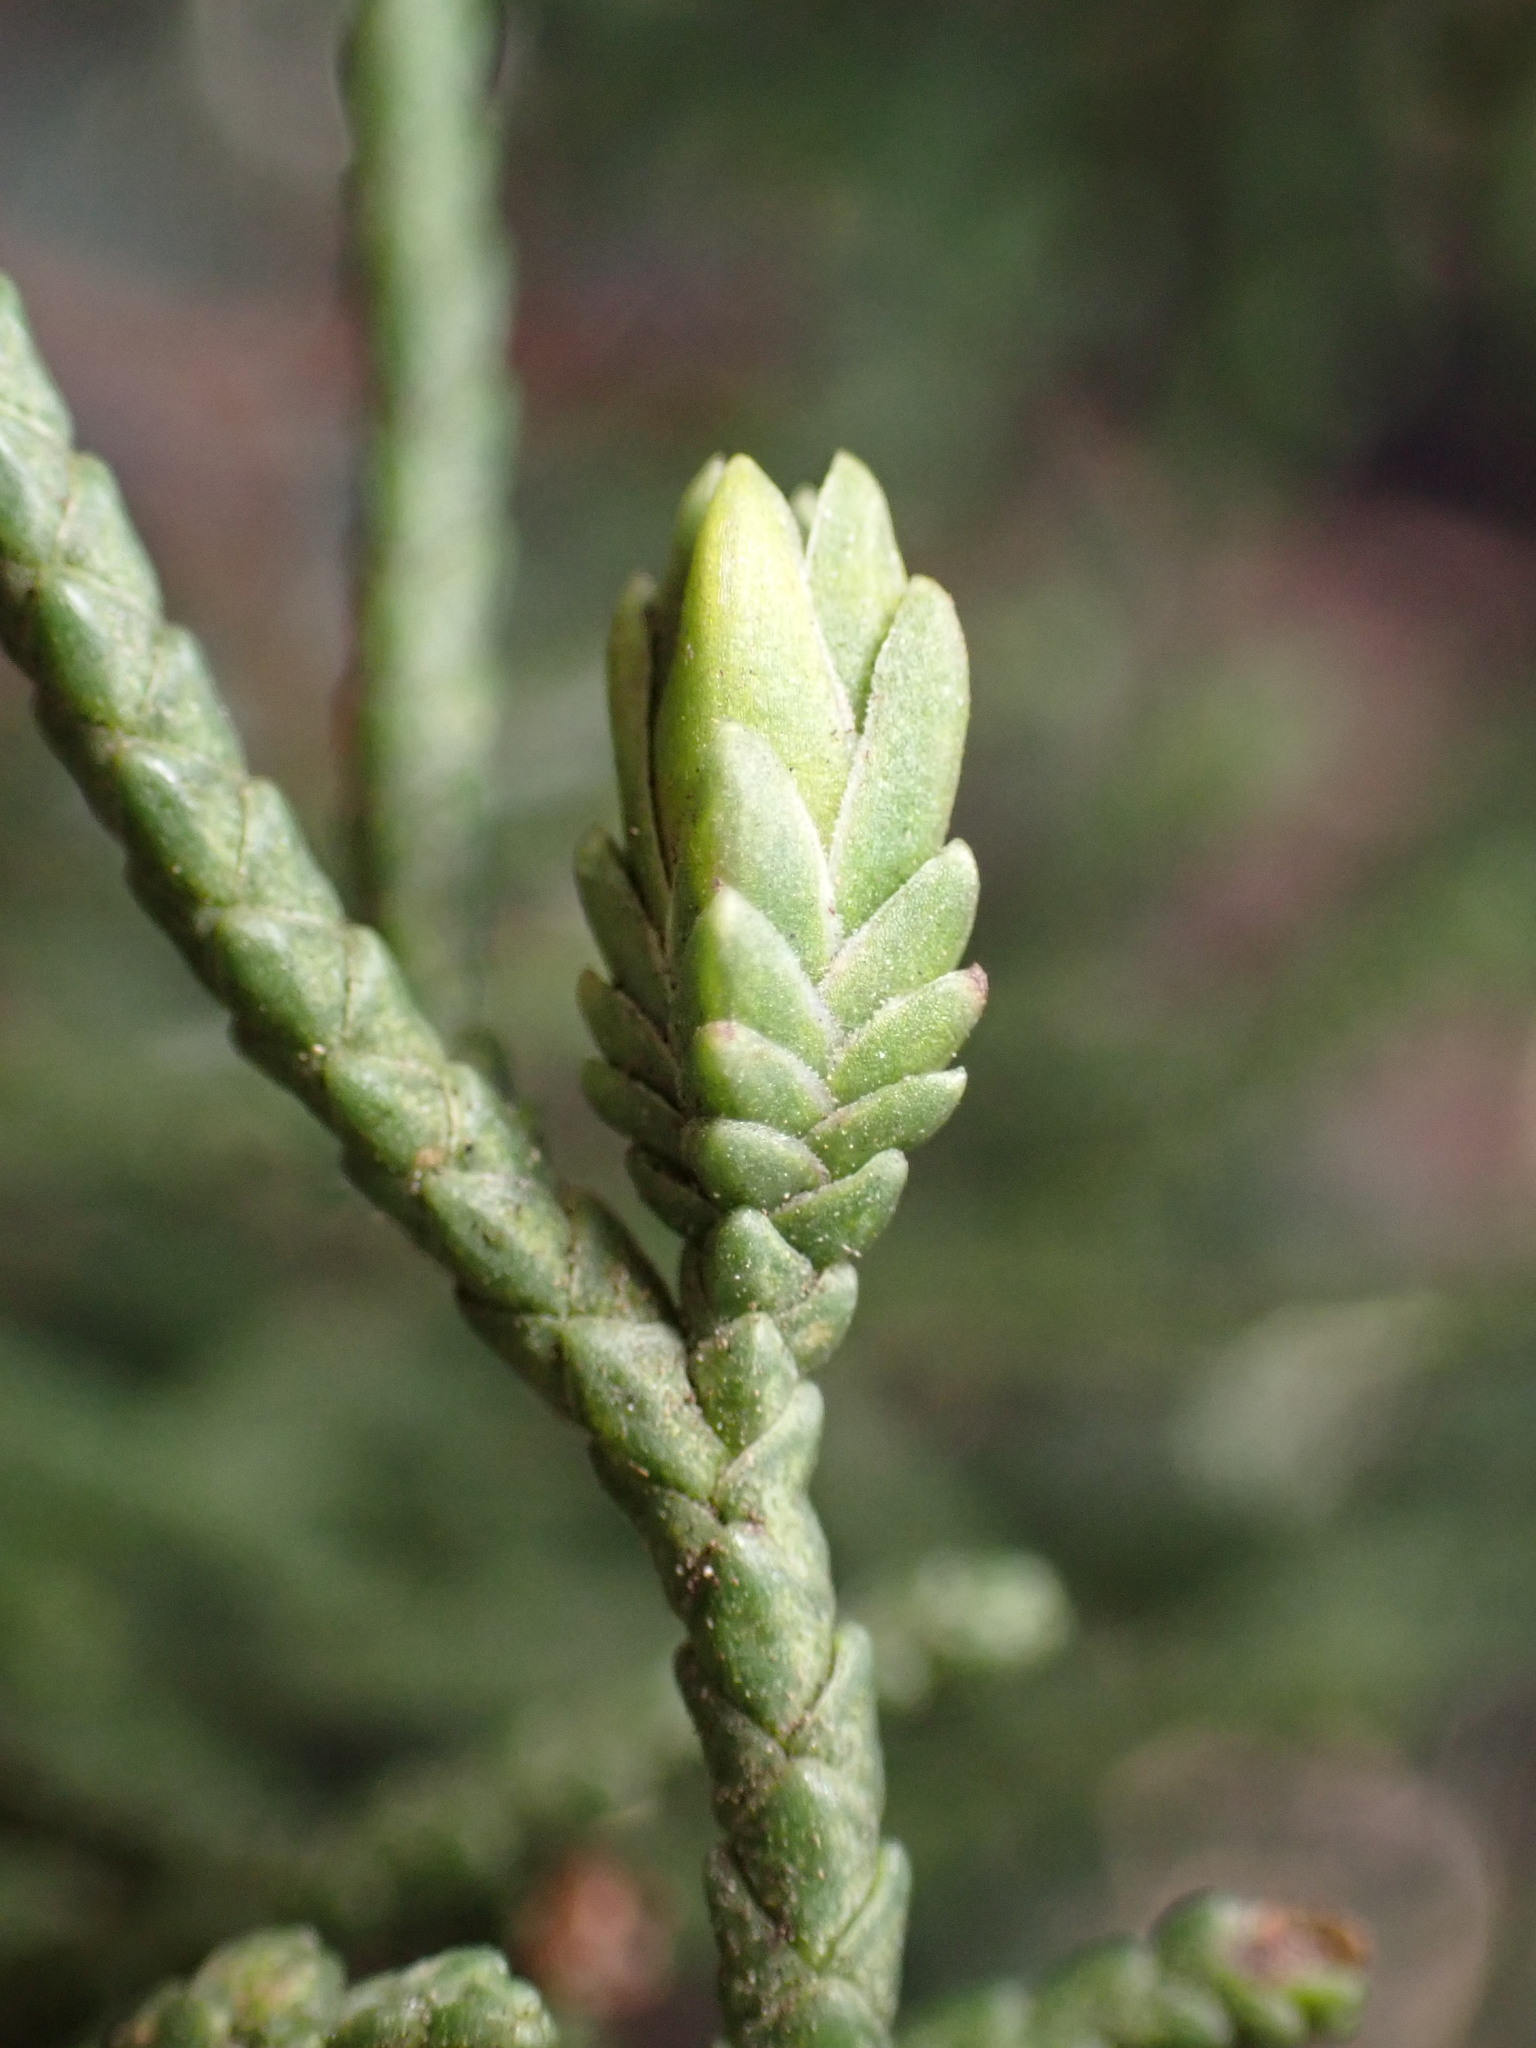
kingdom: Animalia
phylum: Arthropoda
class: Insecta
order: Diptera
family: Cecidomyiidae
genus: Oligotrophus
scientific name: Oligotrophus cupressi
